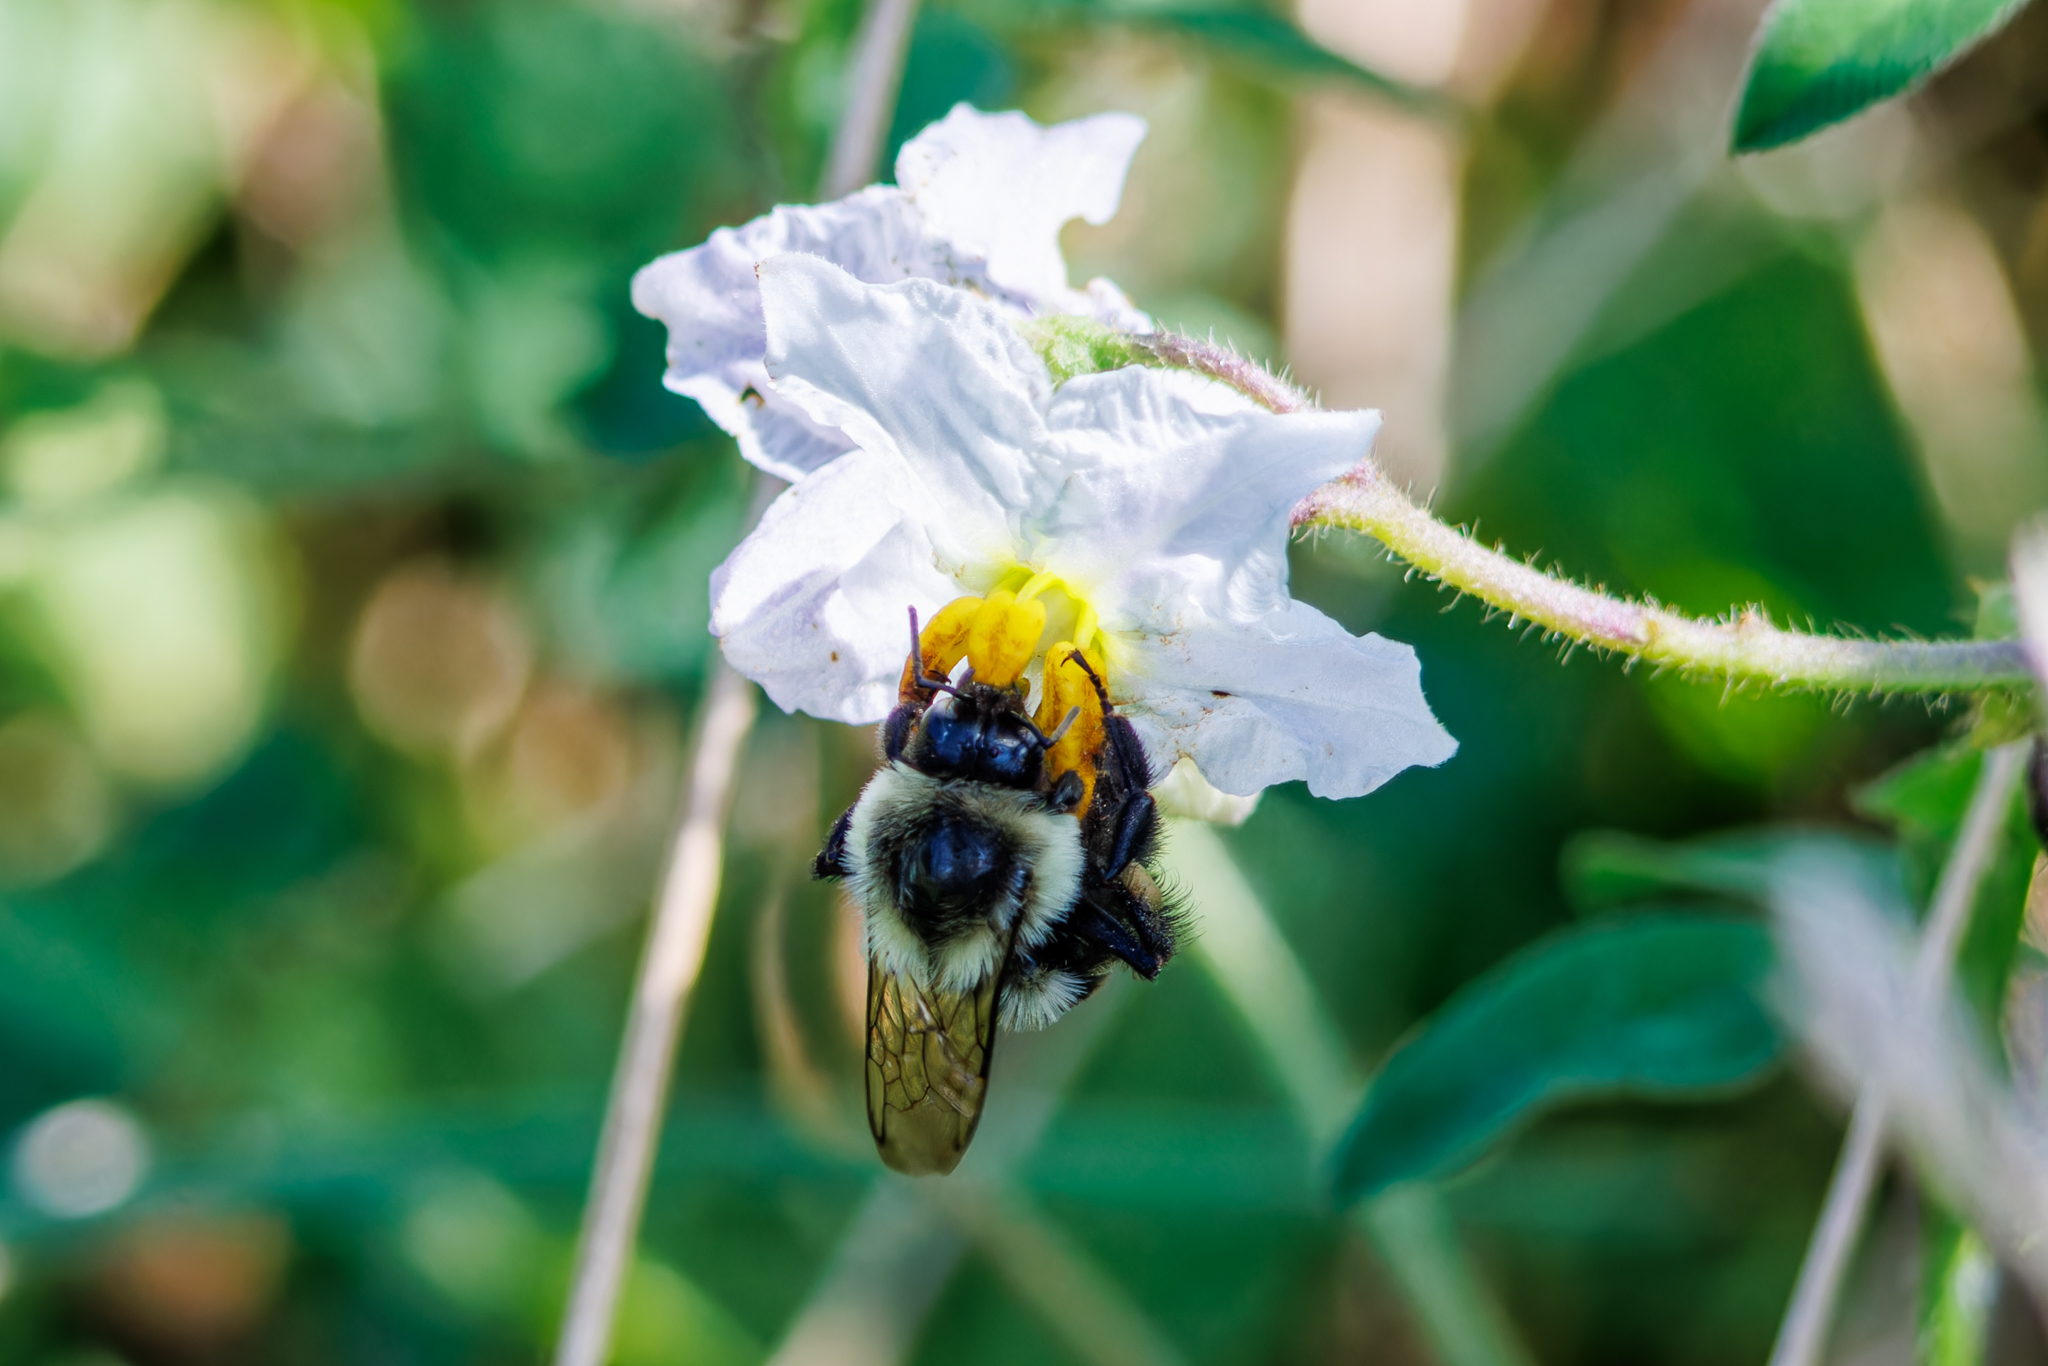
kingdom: Animalia
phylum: Arthropoda
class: Insecta
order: Hymenoptera
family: Apidae
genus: Bombus
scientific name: Bombus impatiens
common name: Common eastern bumble bee
